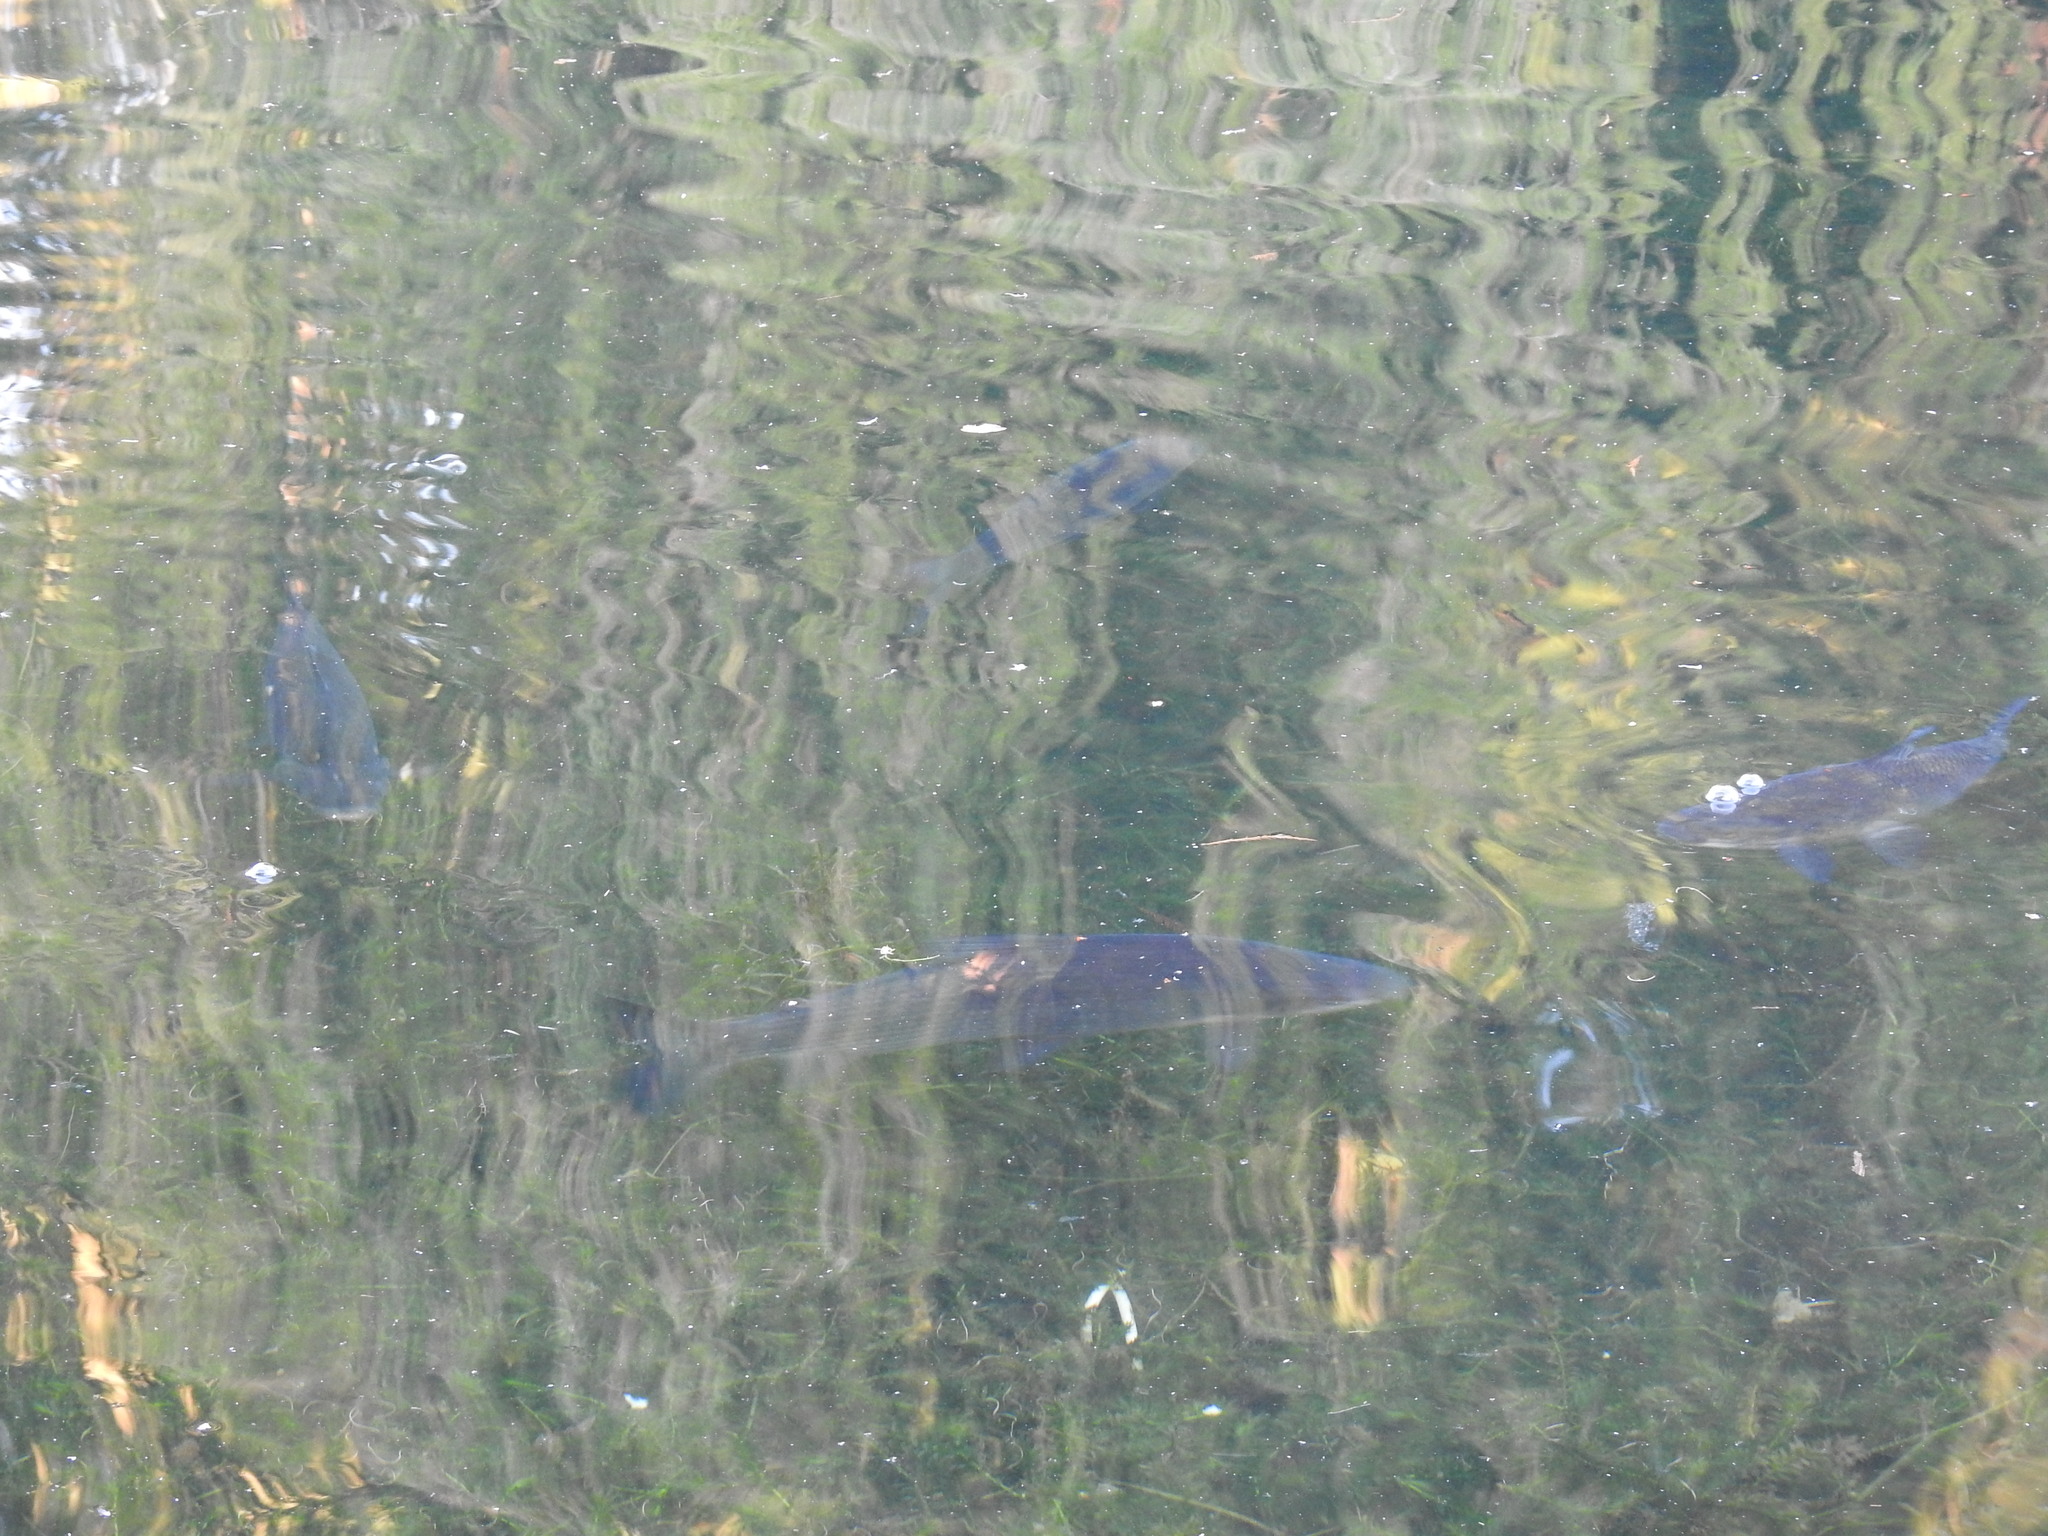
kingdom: Animalia
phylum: Chordata
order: Characiformes
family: Prochilodontidae
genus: Prochilodus
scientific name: Prochilodus lineatus
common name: Curimbata
